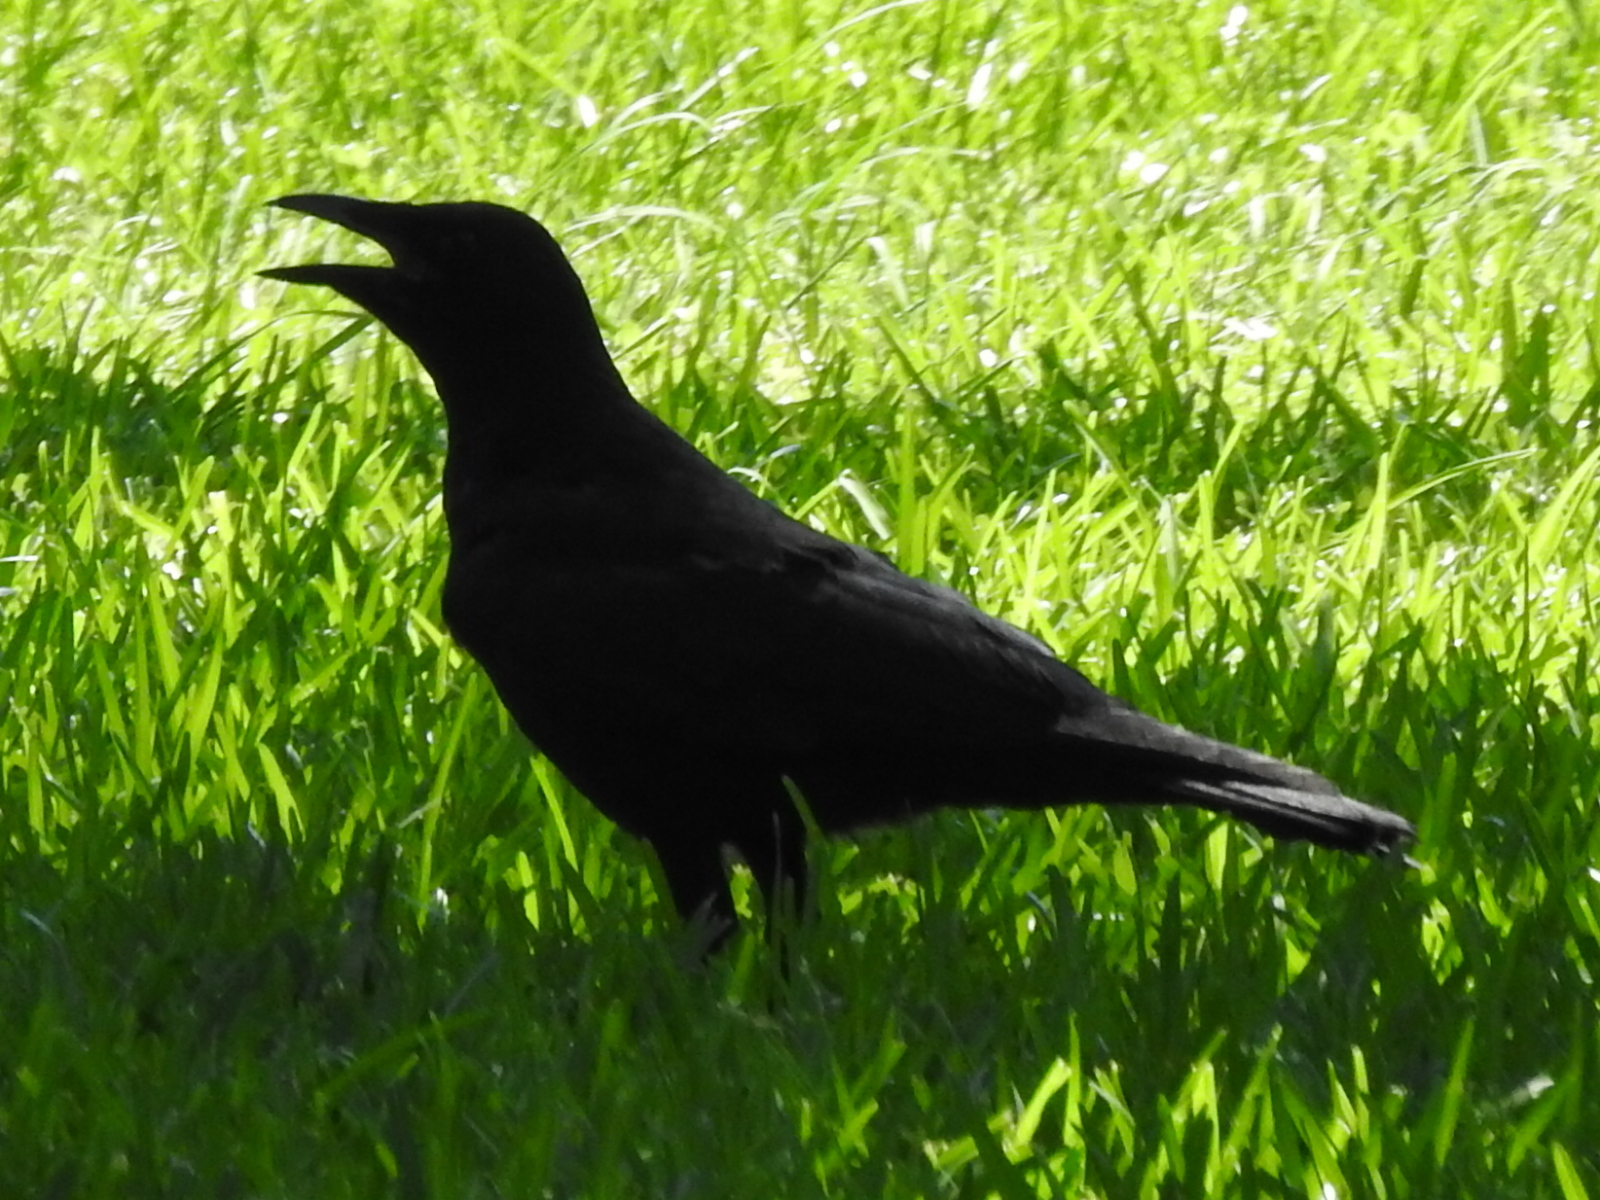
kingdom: Animalia
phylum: Chordata
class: Aves
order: Passeriformes
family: Corvidae
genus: Corvus
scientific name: Corvus brachyrhynchos
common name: American crow
